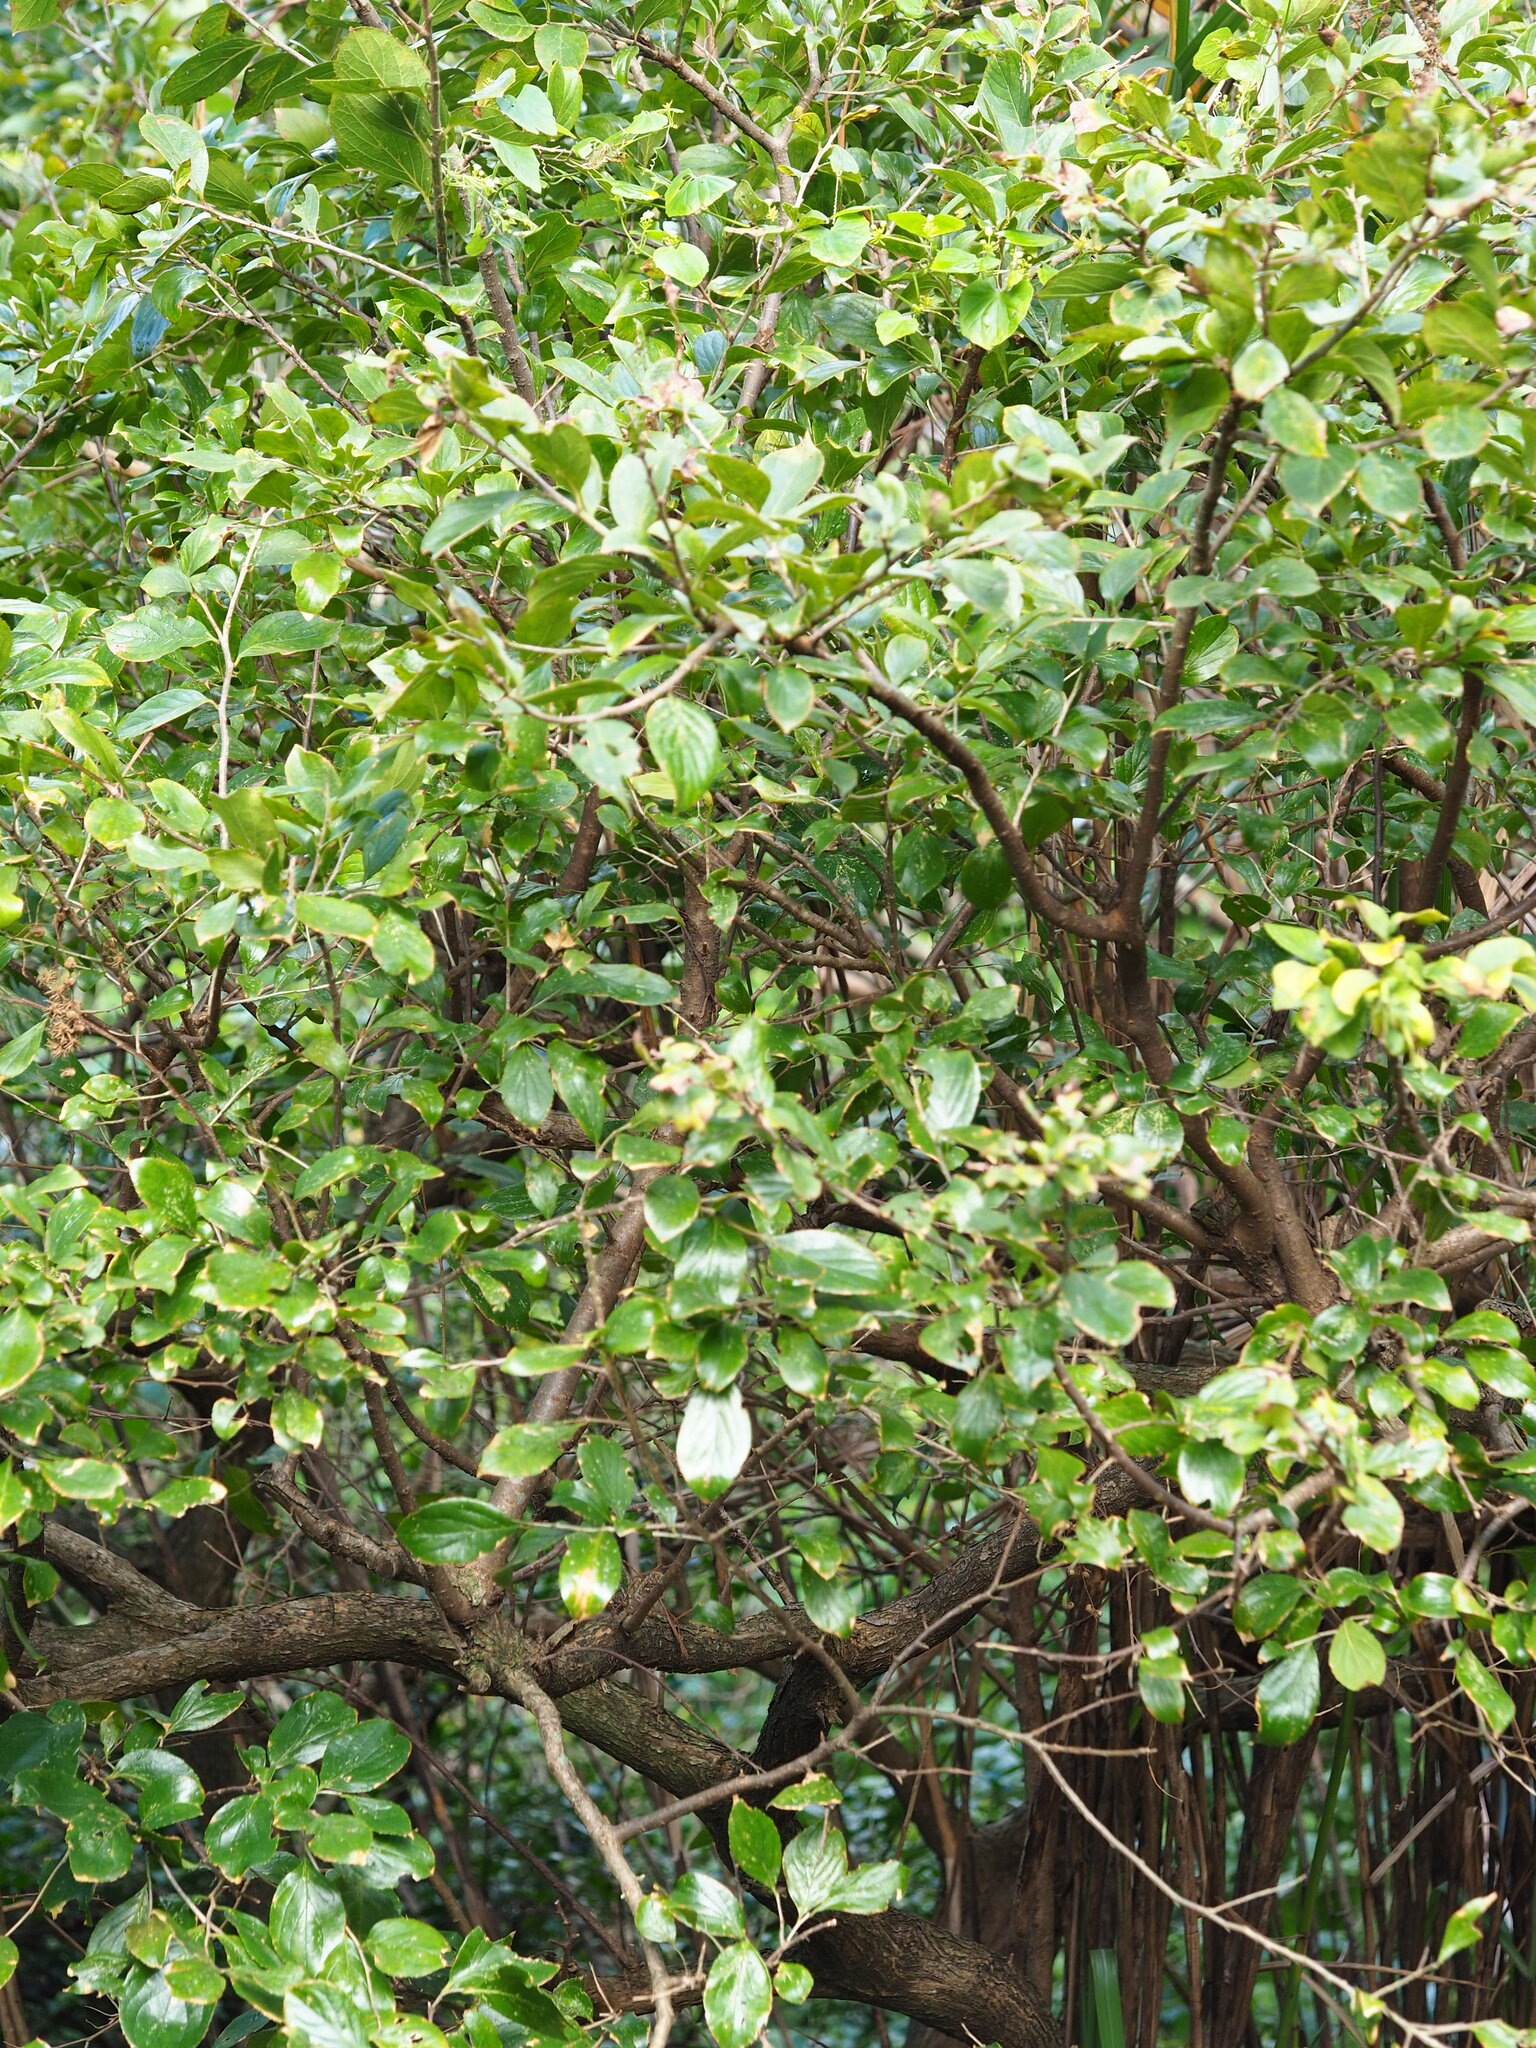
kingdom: Plantae
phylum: Tracheophyta
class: Magnoliopsida
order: Ericales
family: Symplocaceae
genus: Symplocos
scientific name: Symplocos paniculata
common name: Sapphire-berry
